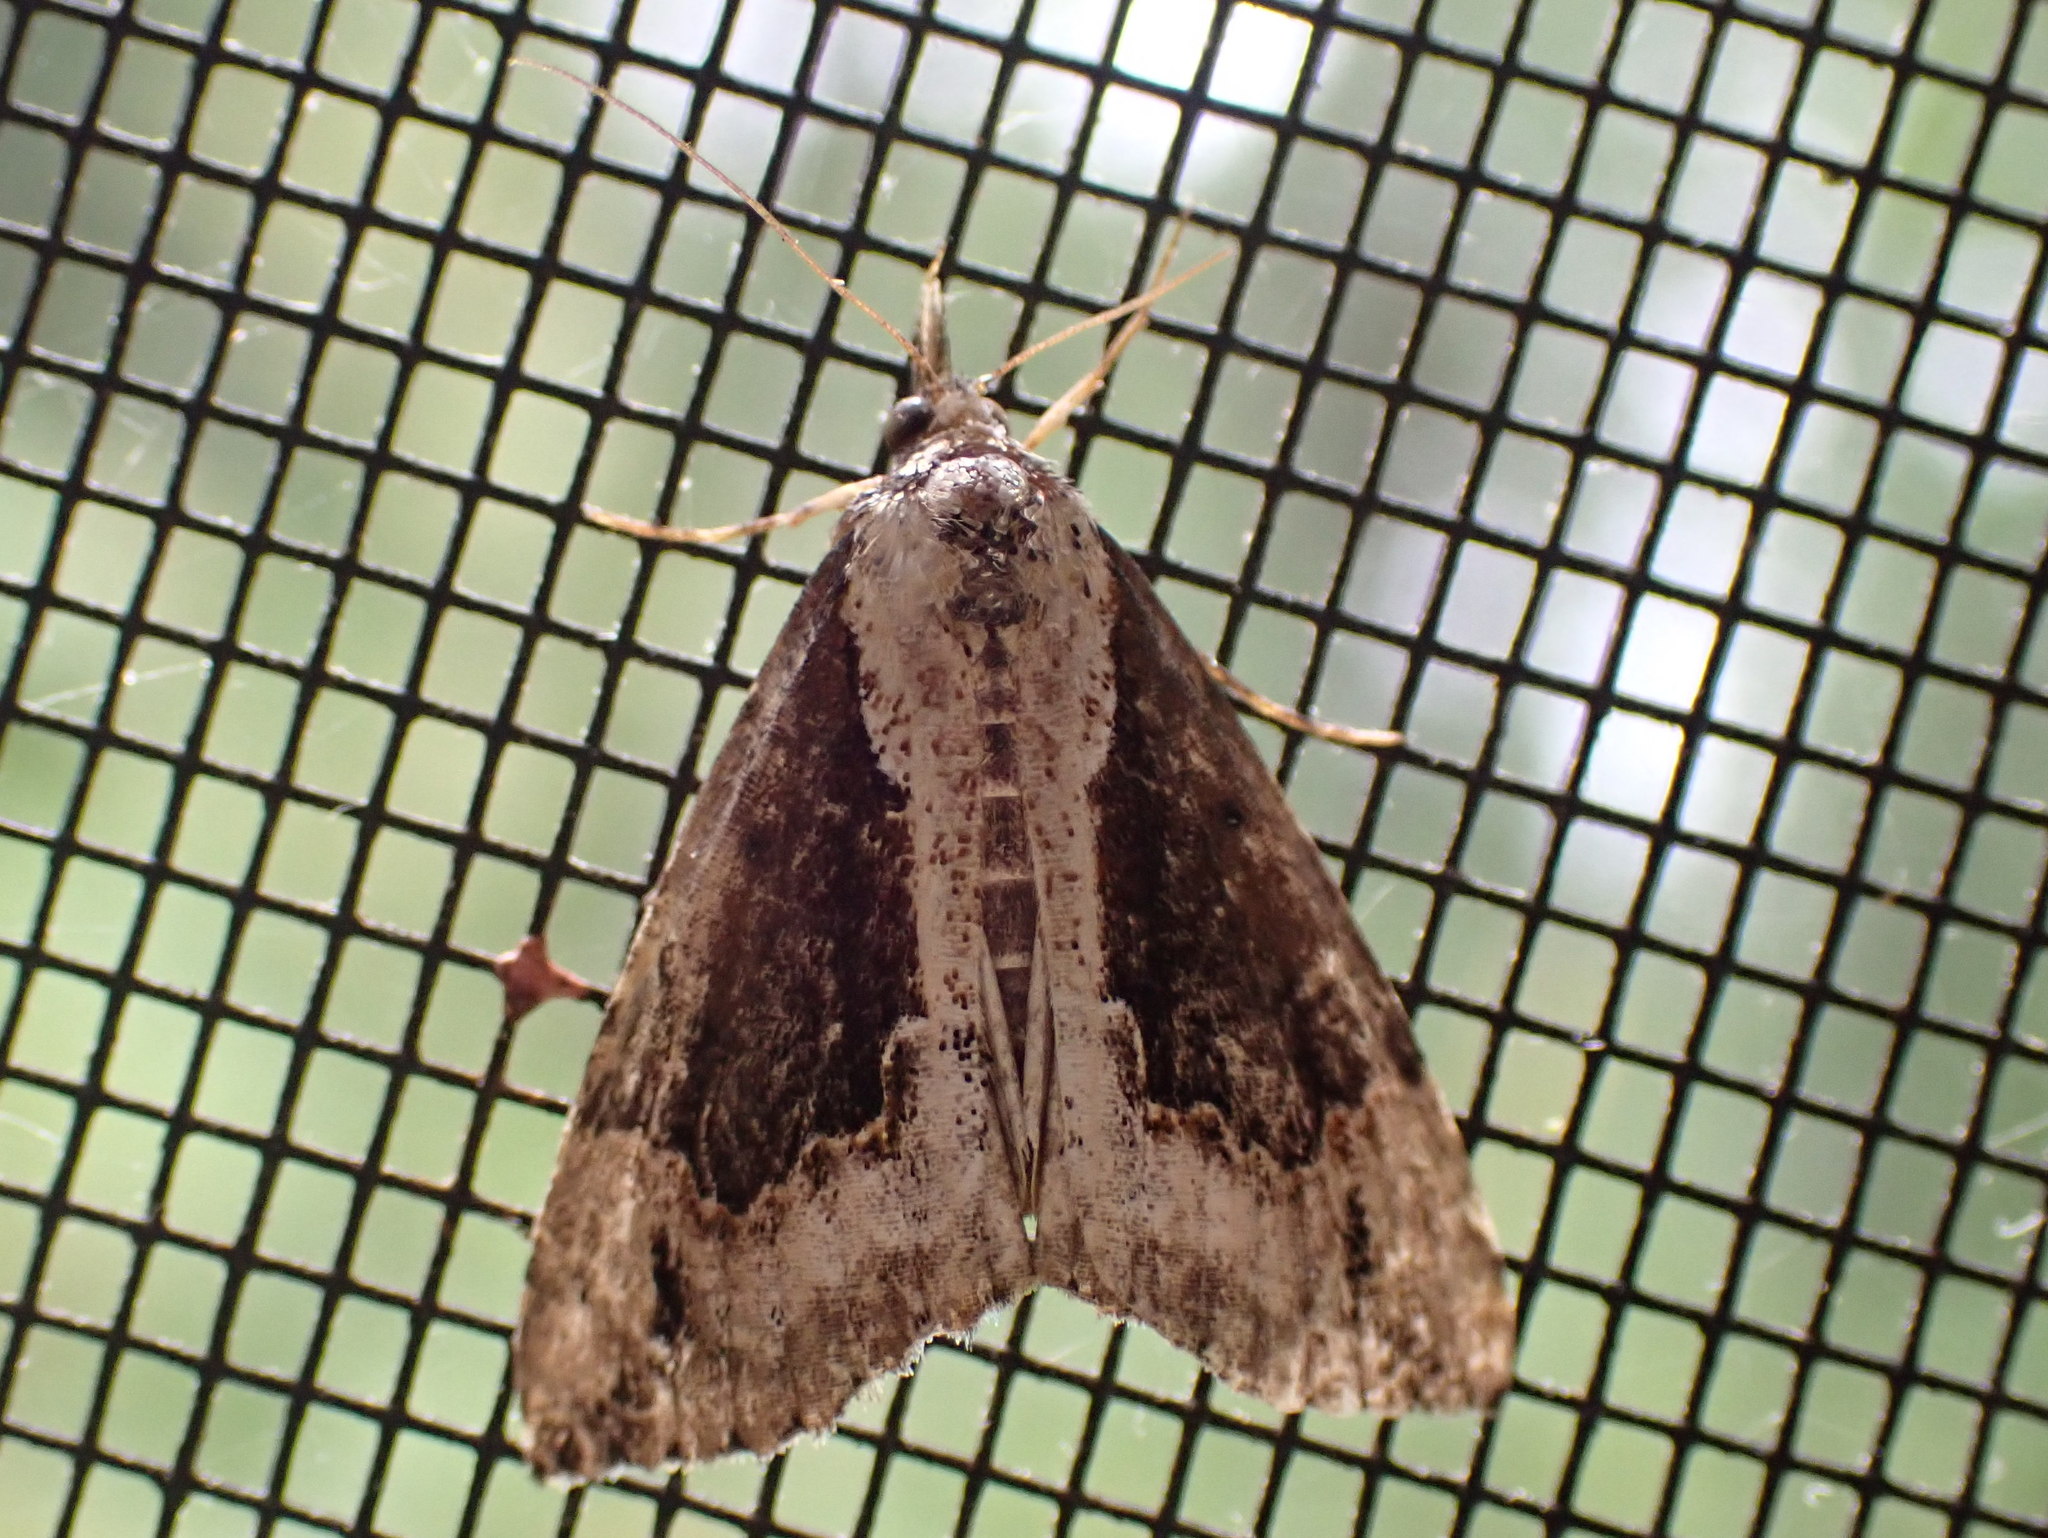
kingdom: Animalia
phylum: Arthropoda
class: Insecta
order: Lepidoptera
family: Erebidae
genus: Hypena
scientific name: Hypena baltimoralis
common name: Baltimore snout
